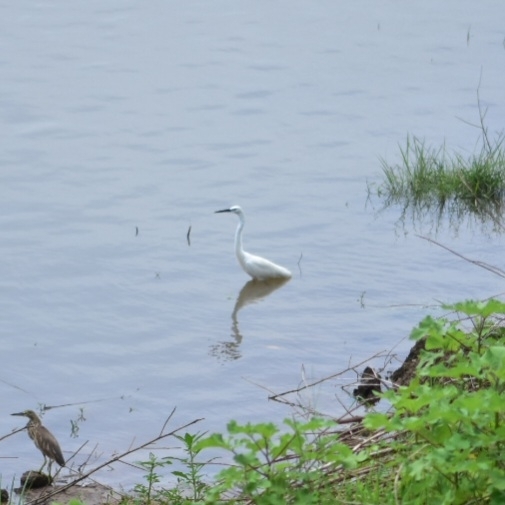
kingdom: Animalia
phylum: Chordata
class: Aves
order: Pelecaniformes
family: Ardeidae
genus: Egretta
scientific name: Egretta garzetta
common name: Little egret
